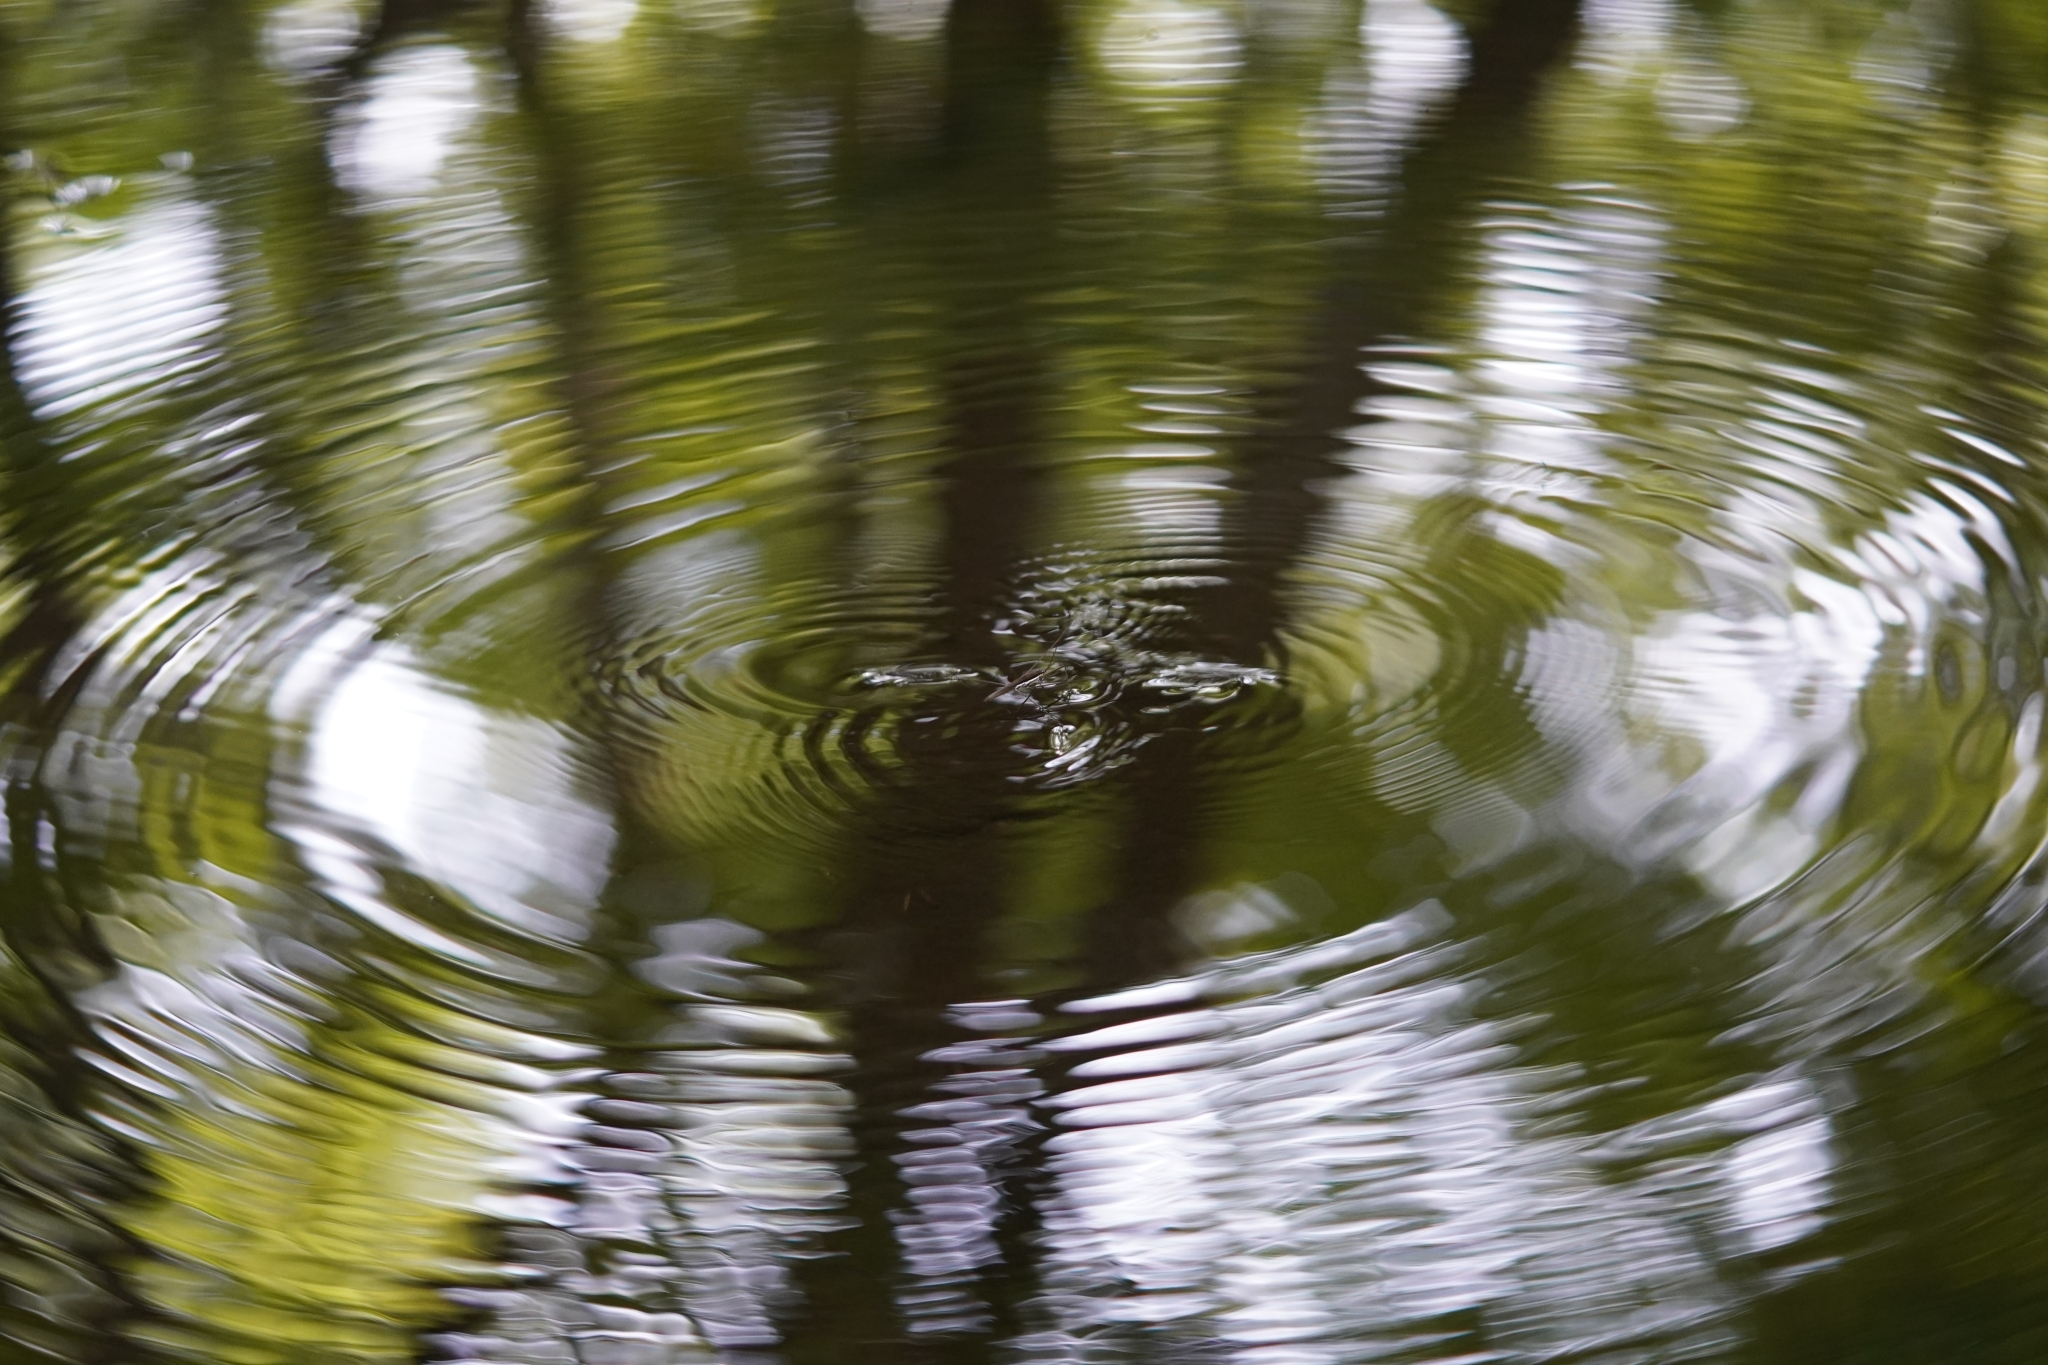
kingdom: Animalia
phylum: Arthropoda
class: Insecta
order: Hemiptera
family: Gerridae
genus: Aquarius
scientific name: Aquarius elongatus
